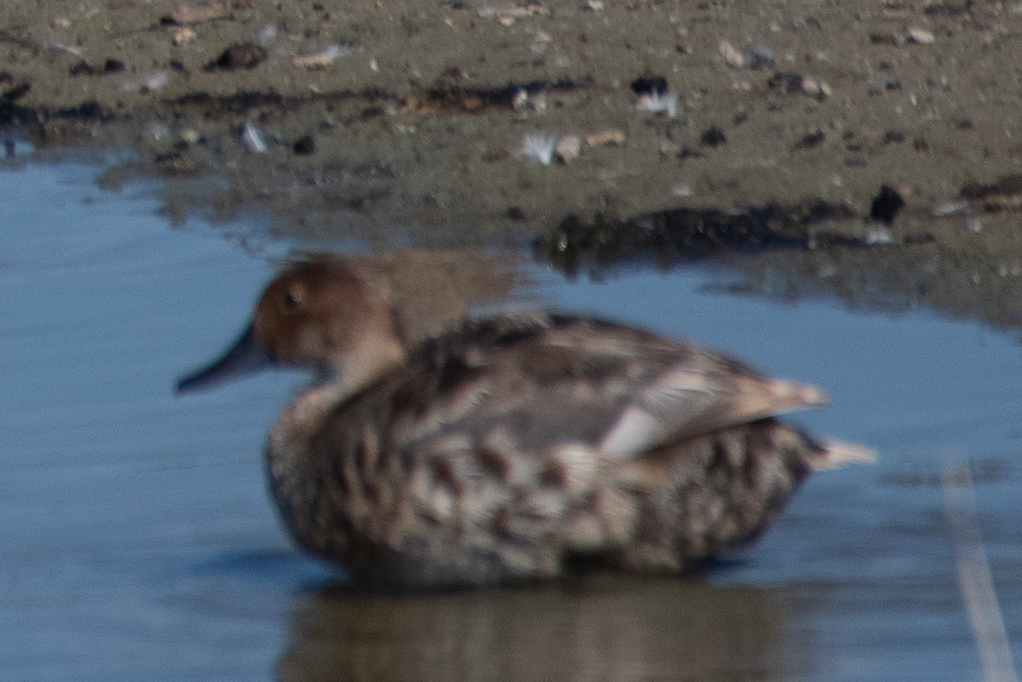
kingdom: Animalia
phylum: Chordata
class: Aves
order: Anseriformes
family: Anatidae
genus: Anas
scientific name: Anas acuta
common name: Northern pintail
